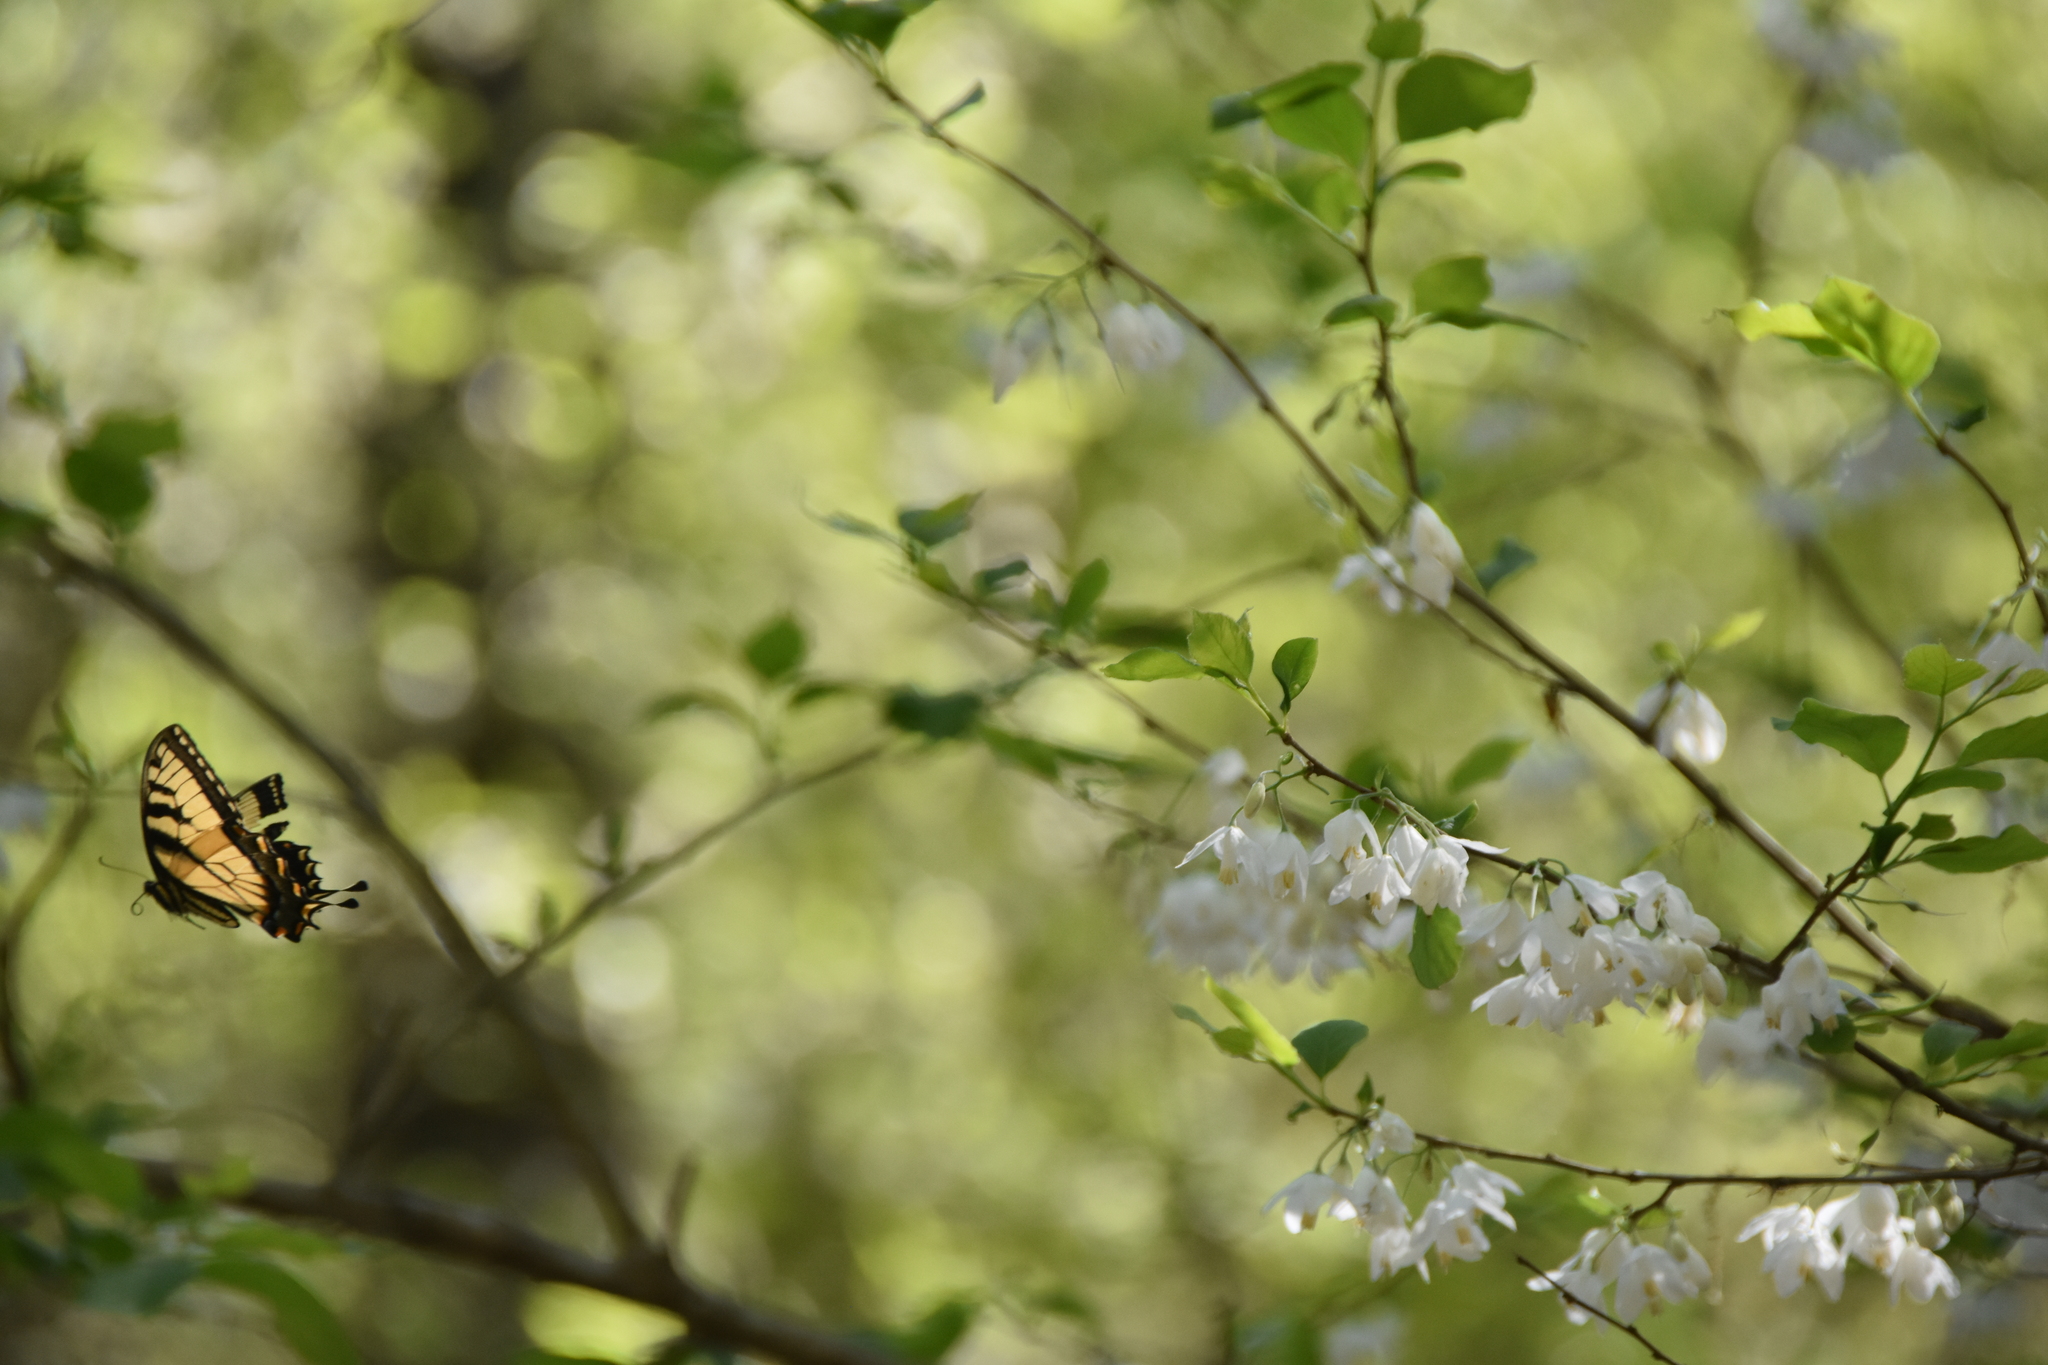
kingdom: Animalia
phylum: Arthropoda
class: Insecta
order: Lepidoptera
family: Papilionidae
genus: Papilio
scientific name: Papilio glaucus
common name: Tiger swallowtail
